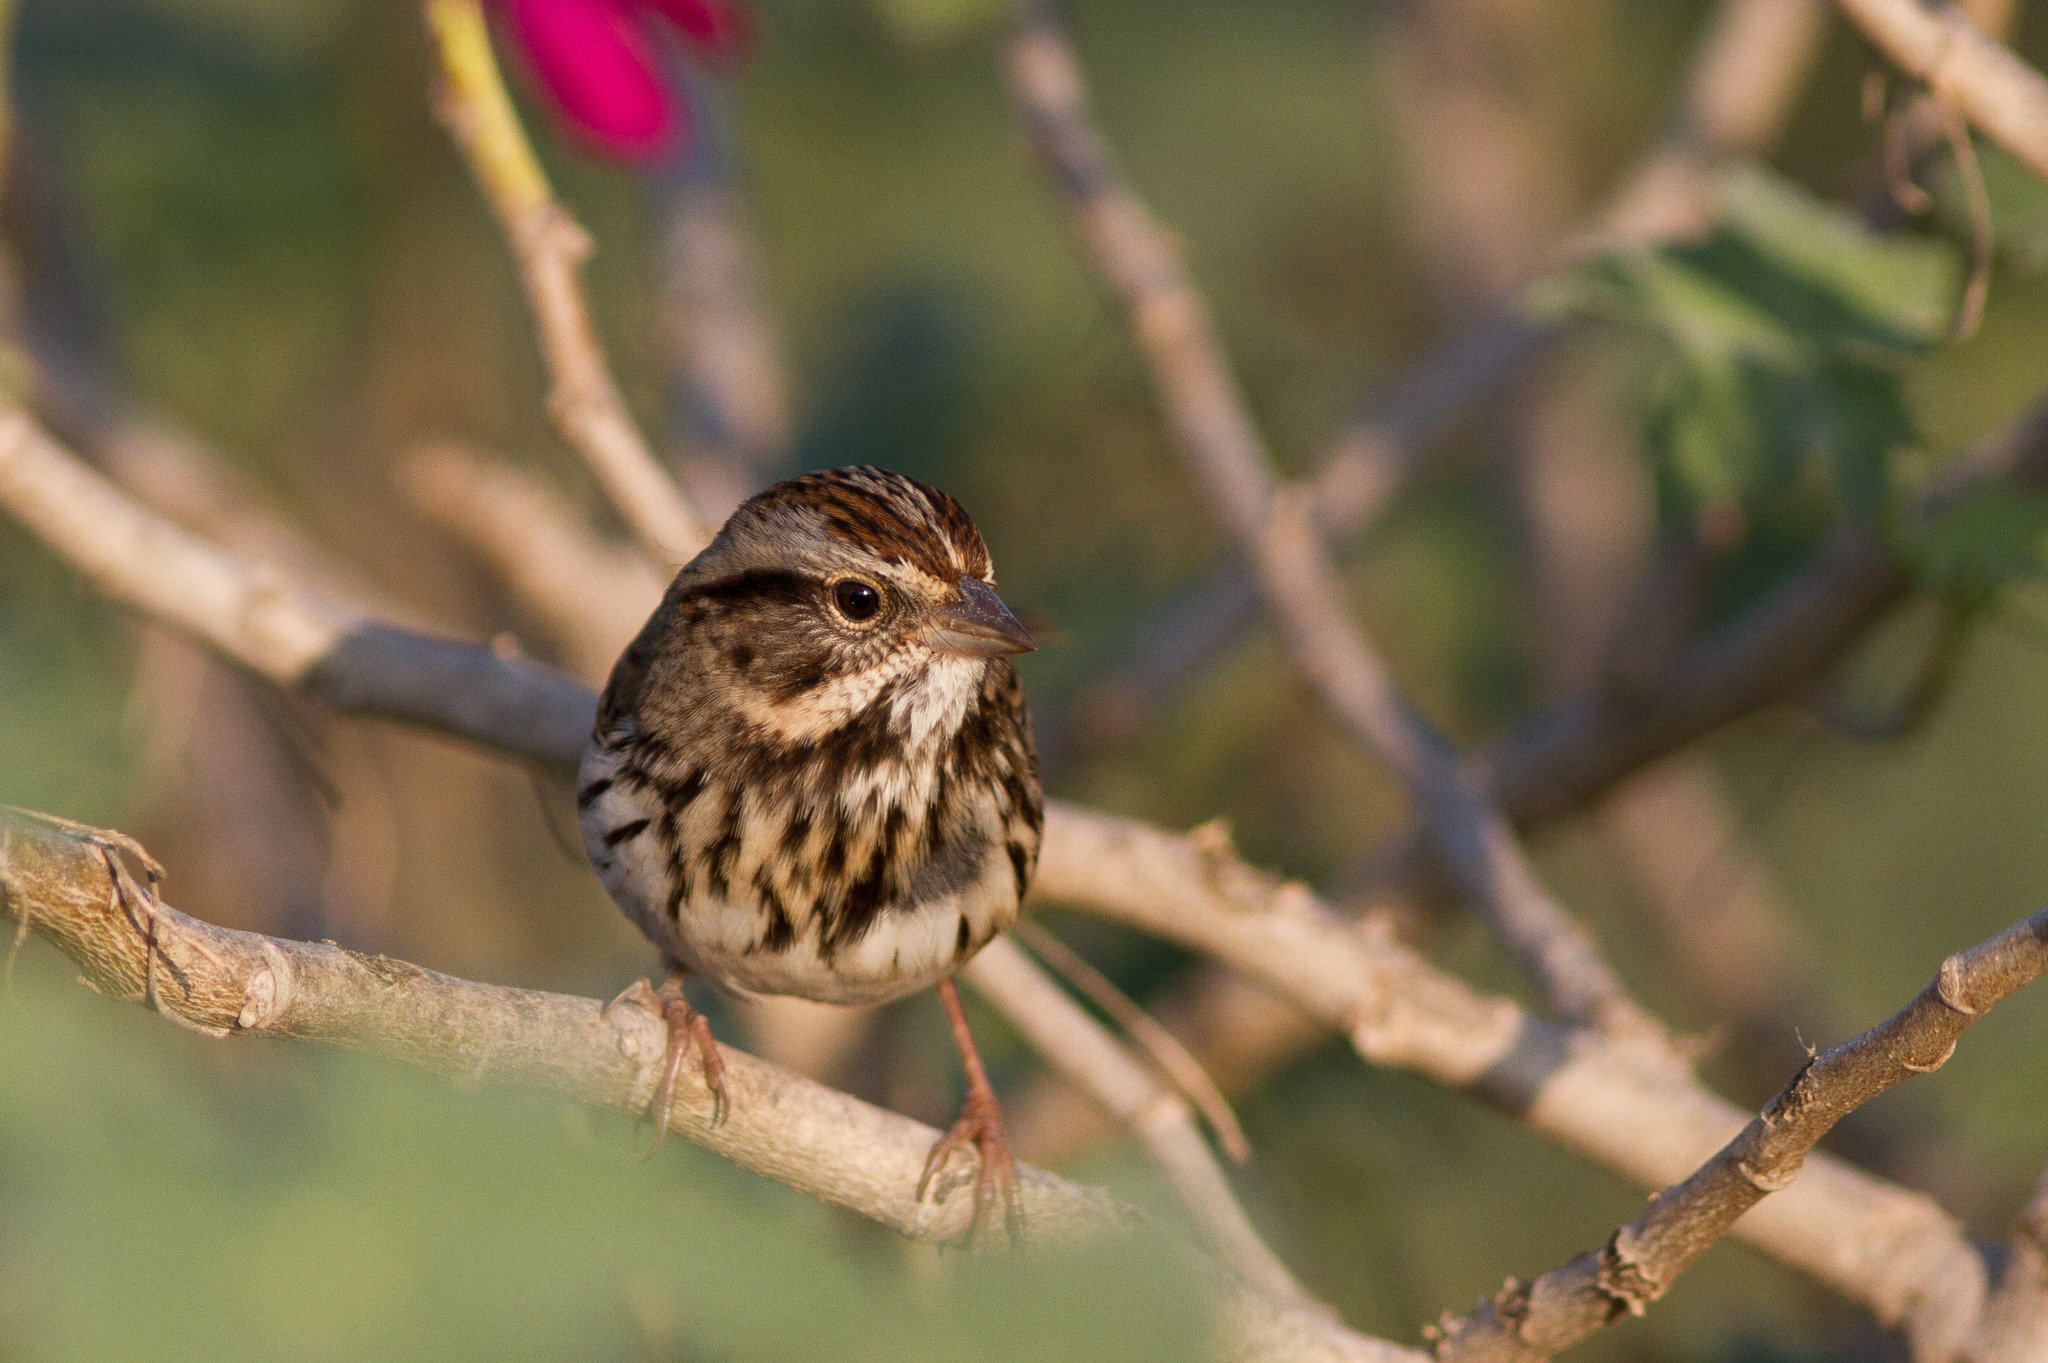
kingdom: Animalia
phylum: Chordata
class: Aves
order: Passeriformes
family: Passerellidae
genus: Melospiza
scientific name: Melospiza melodia
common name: Song sparrow
